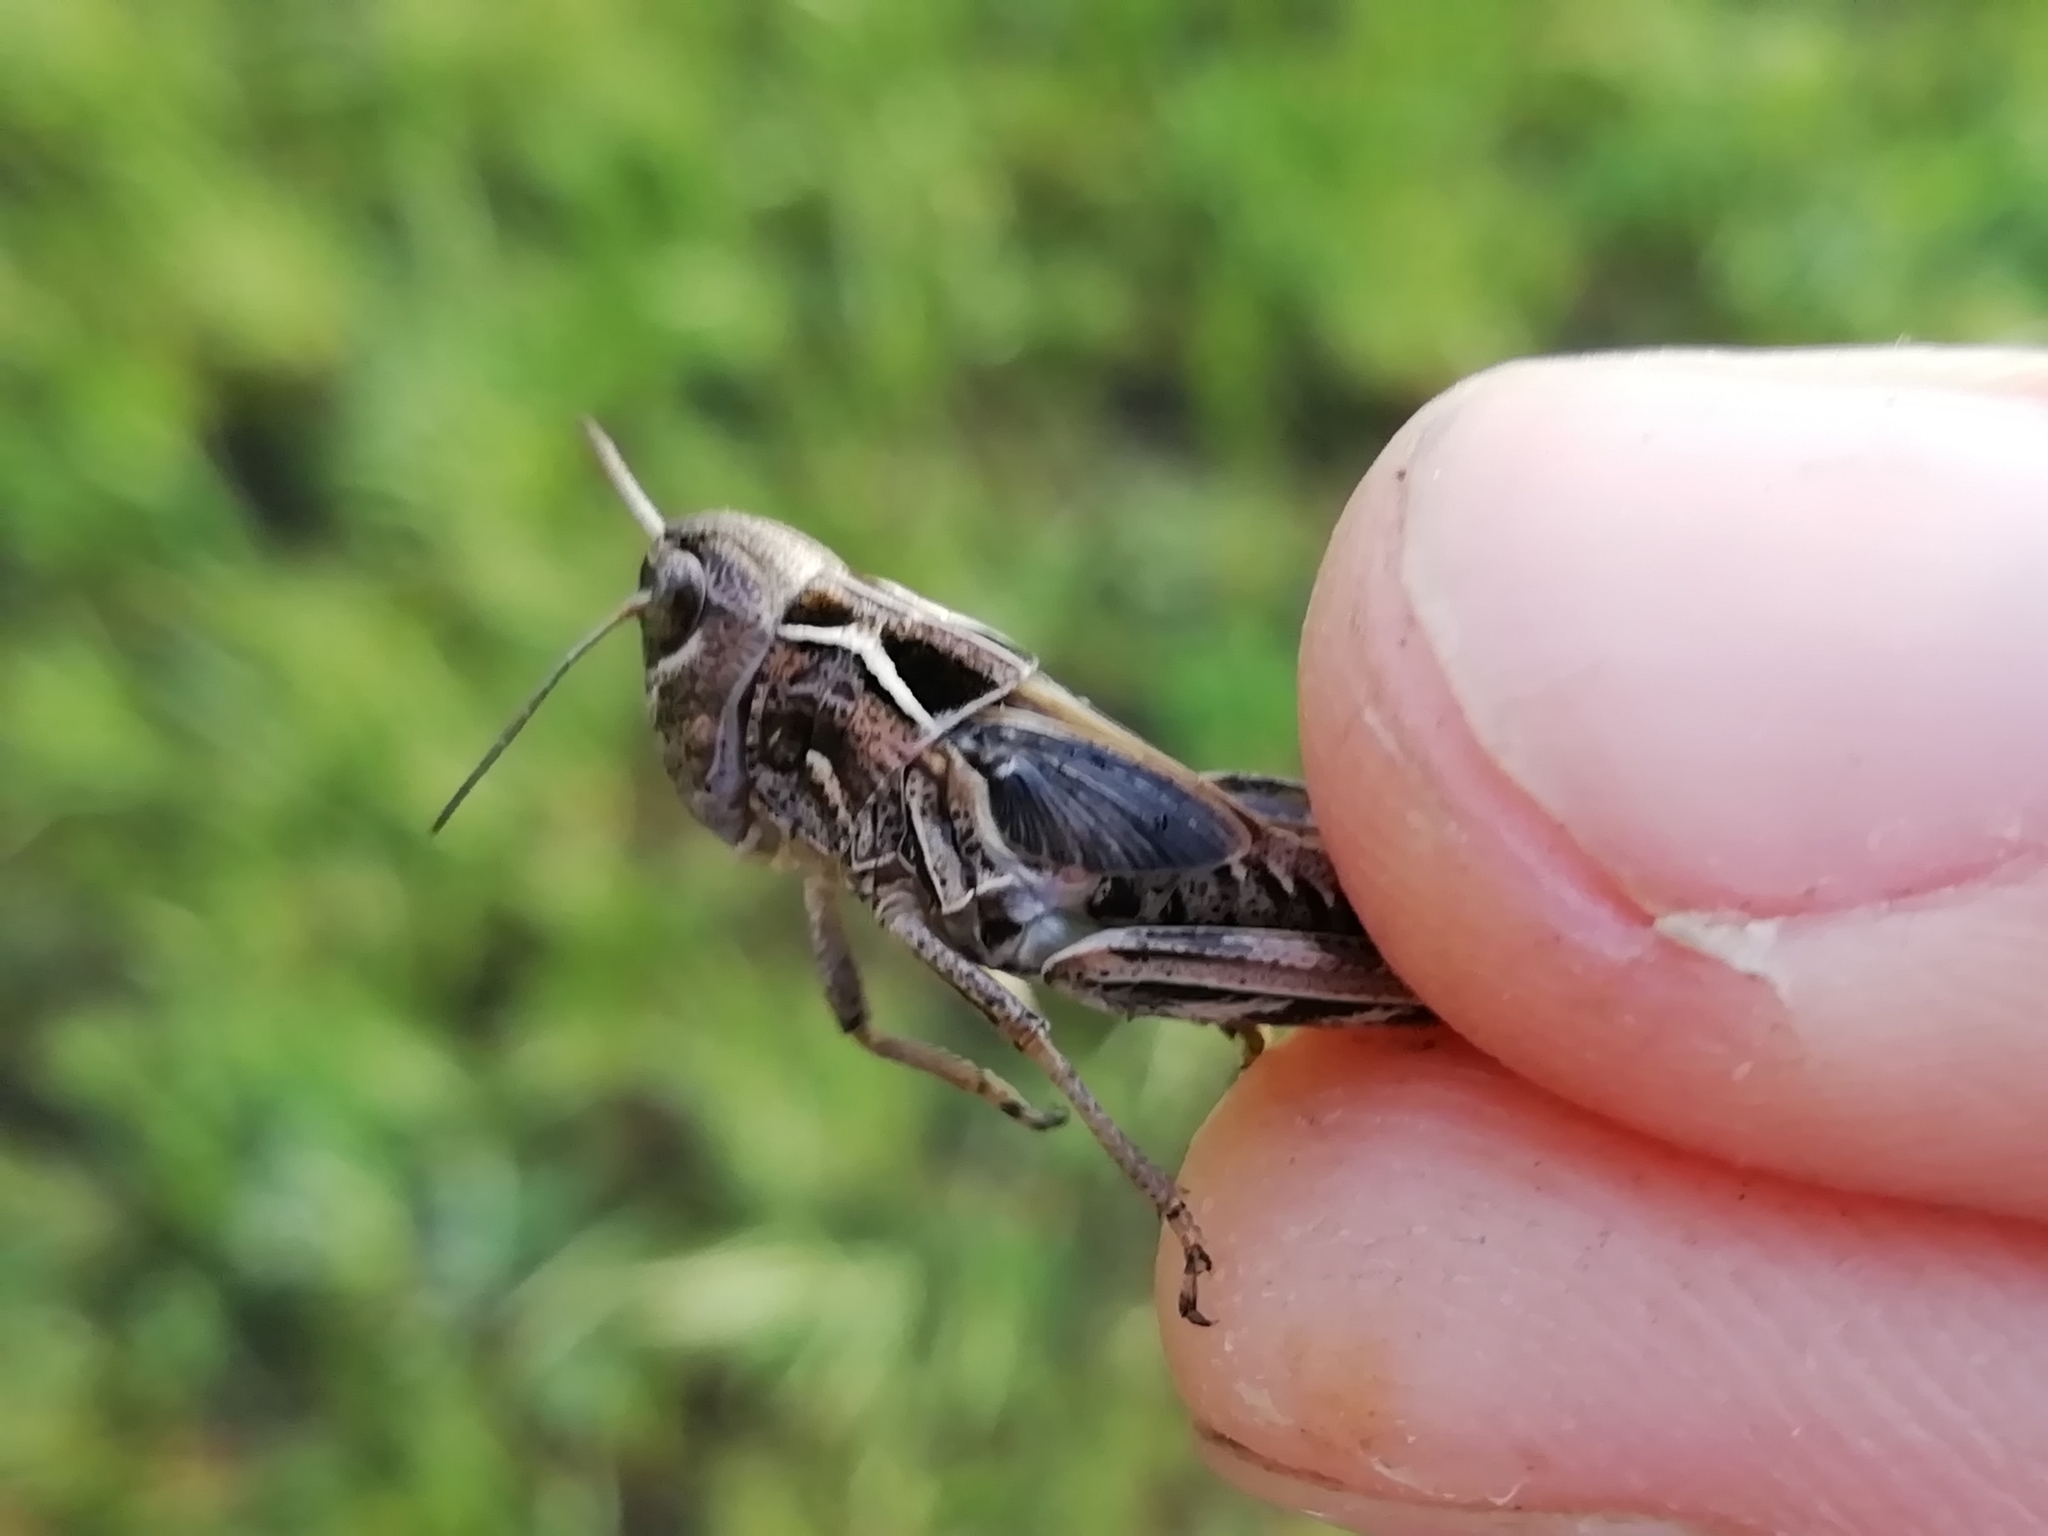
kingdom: Animalia
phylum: Arthropoda
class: Insecta
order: Orthoptera
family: Acrididae
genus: Arcyptera
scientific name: Arcyptera microptera
